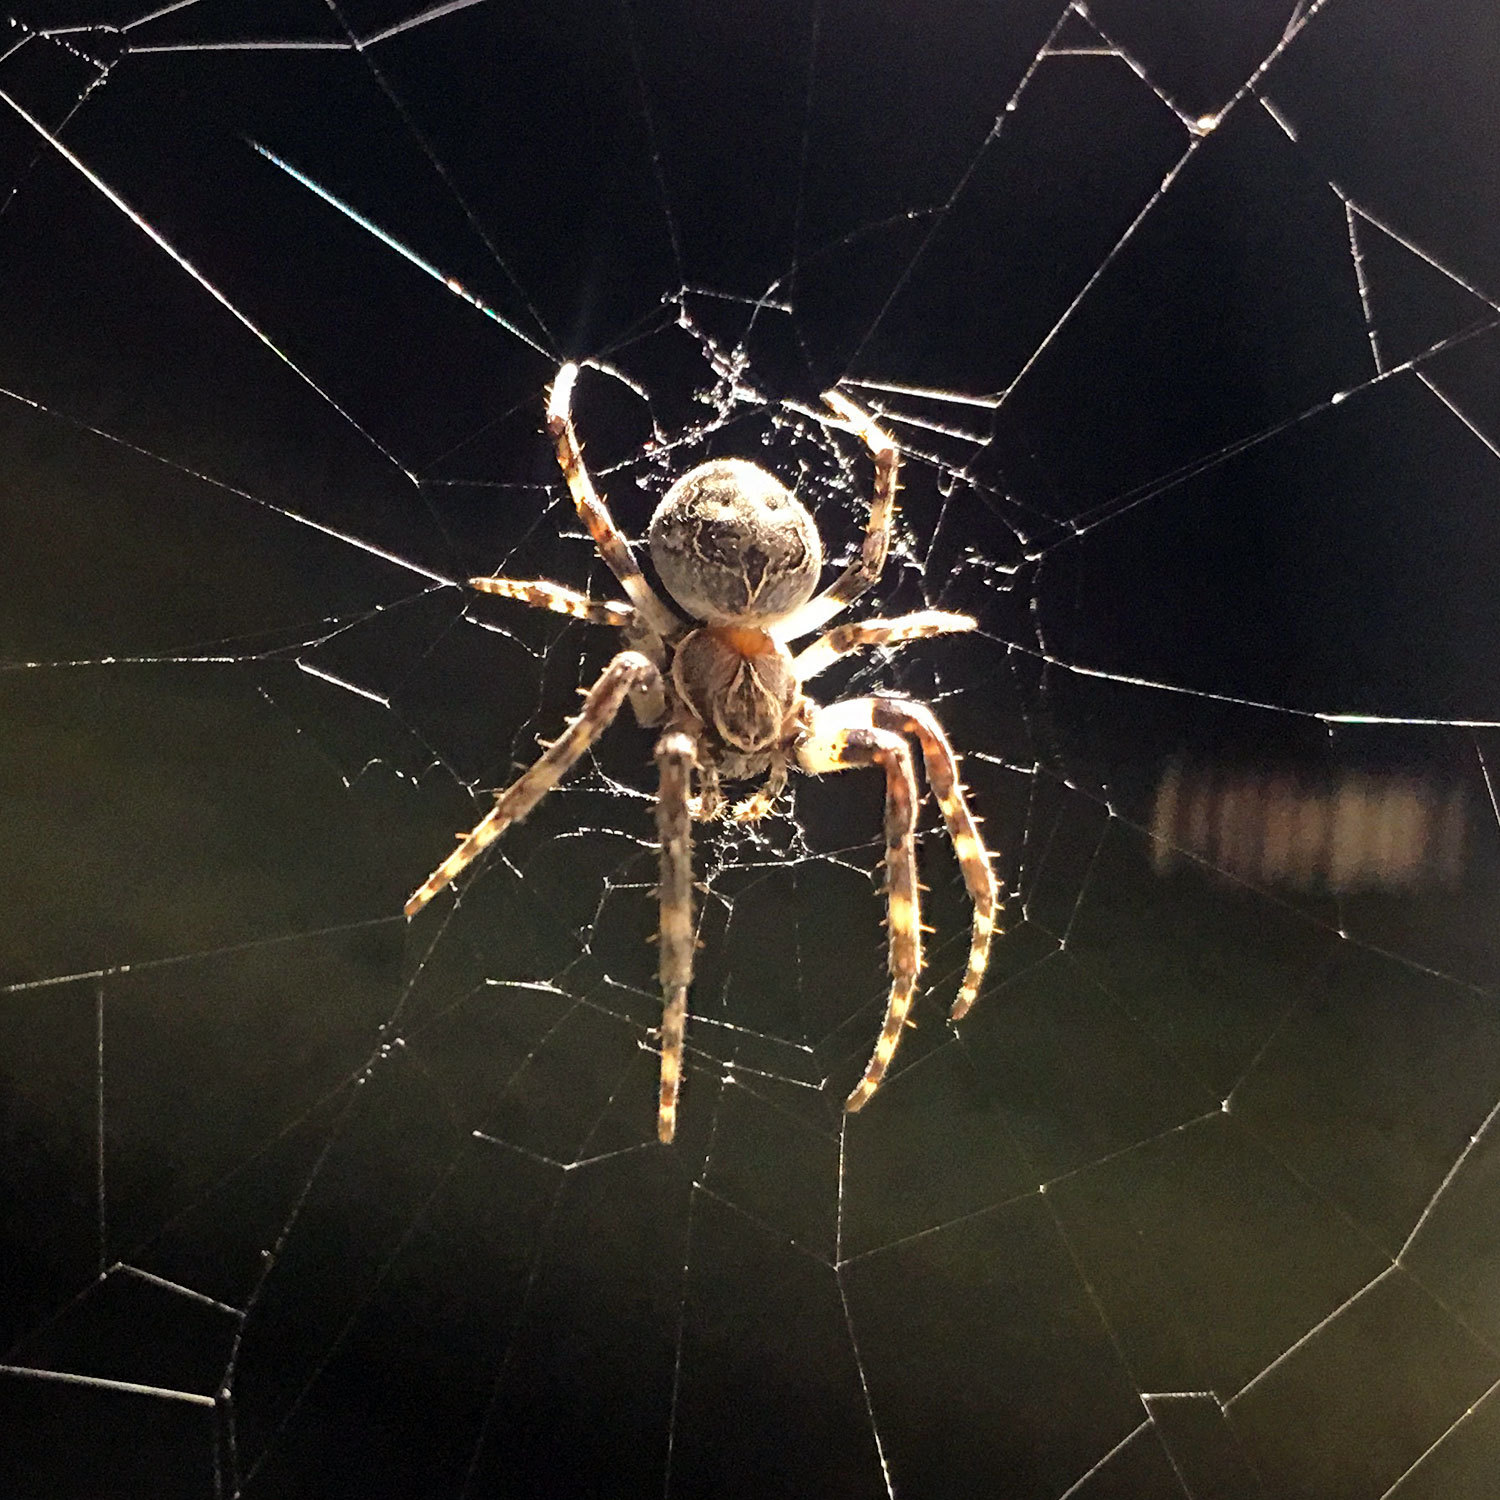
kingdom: Animalia
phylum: Arthropoda
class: Arachnida
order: Araneae
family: Araneidae
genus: Larinioides
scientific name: Larinioides sclopetarius
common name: Bridge orbweaver
